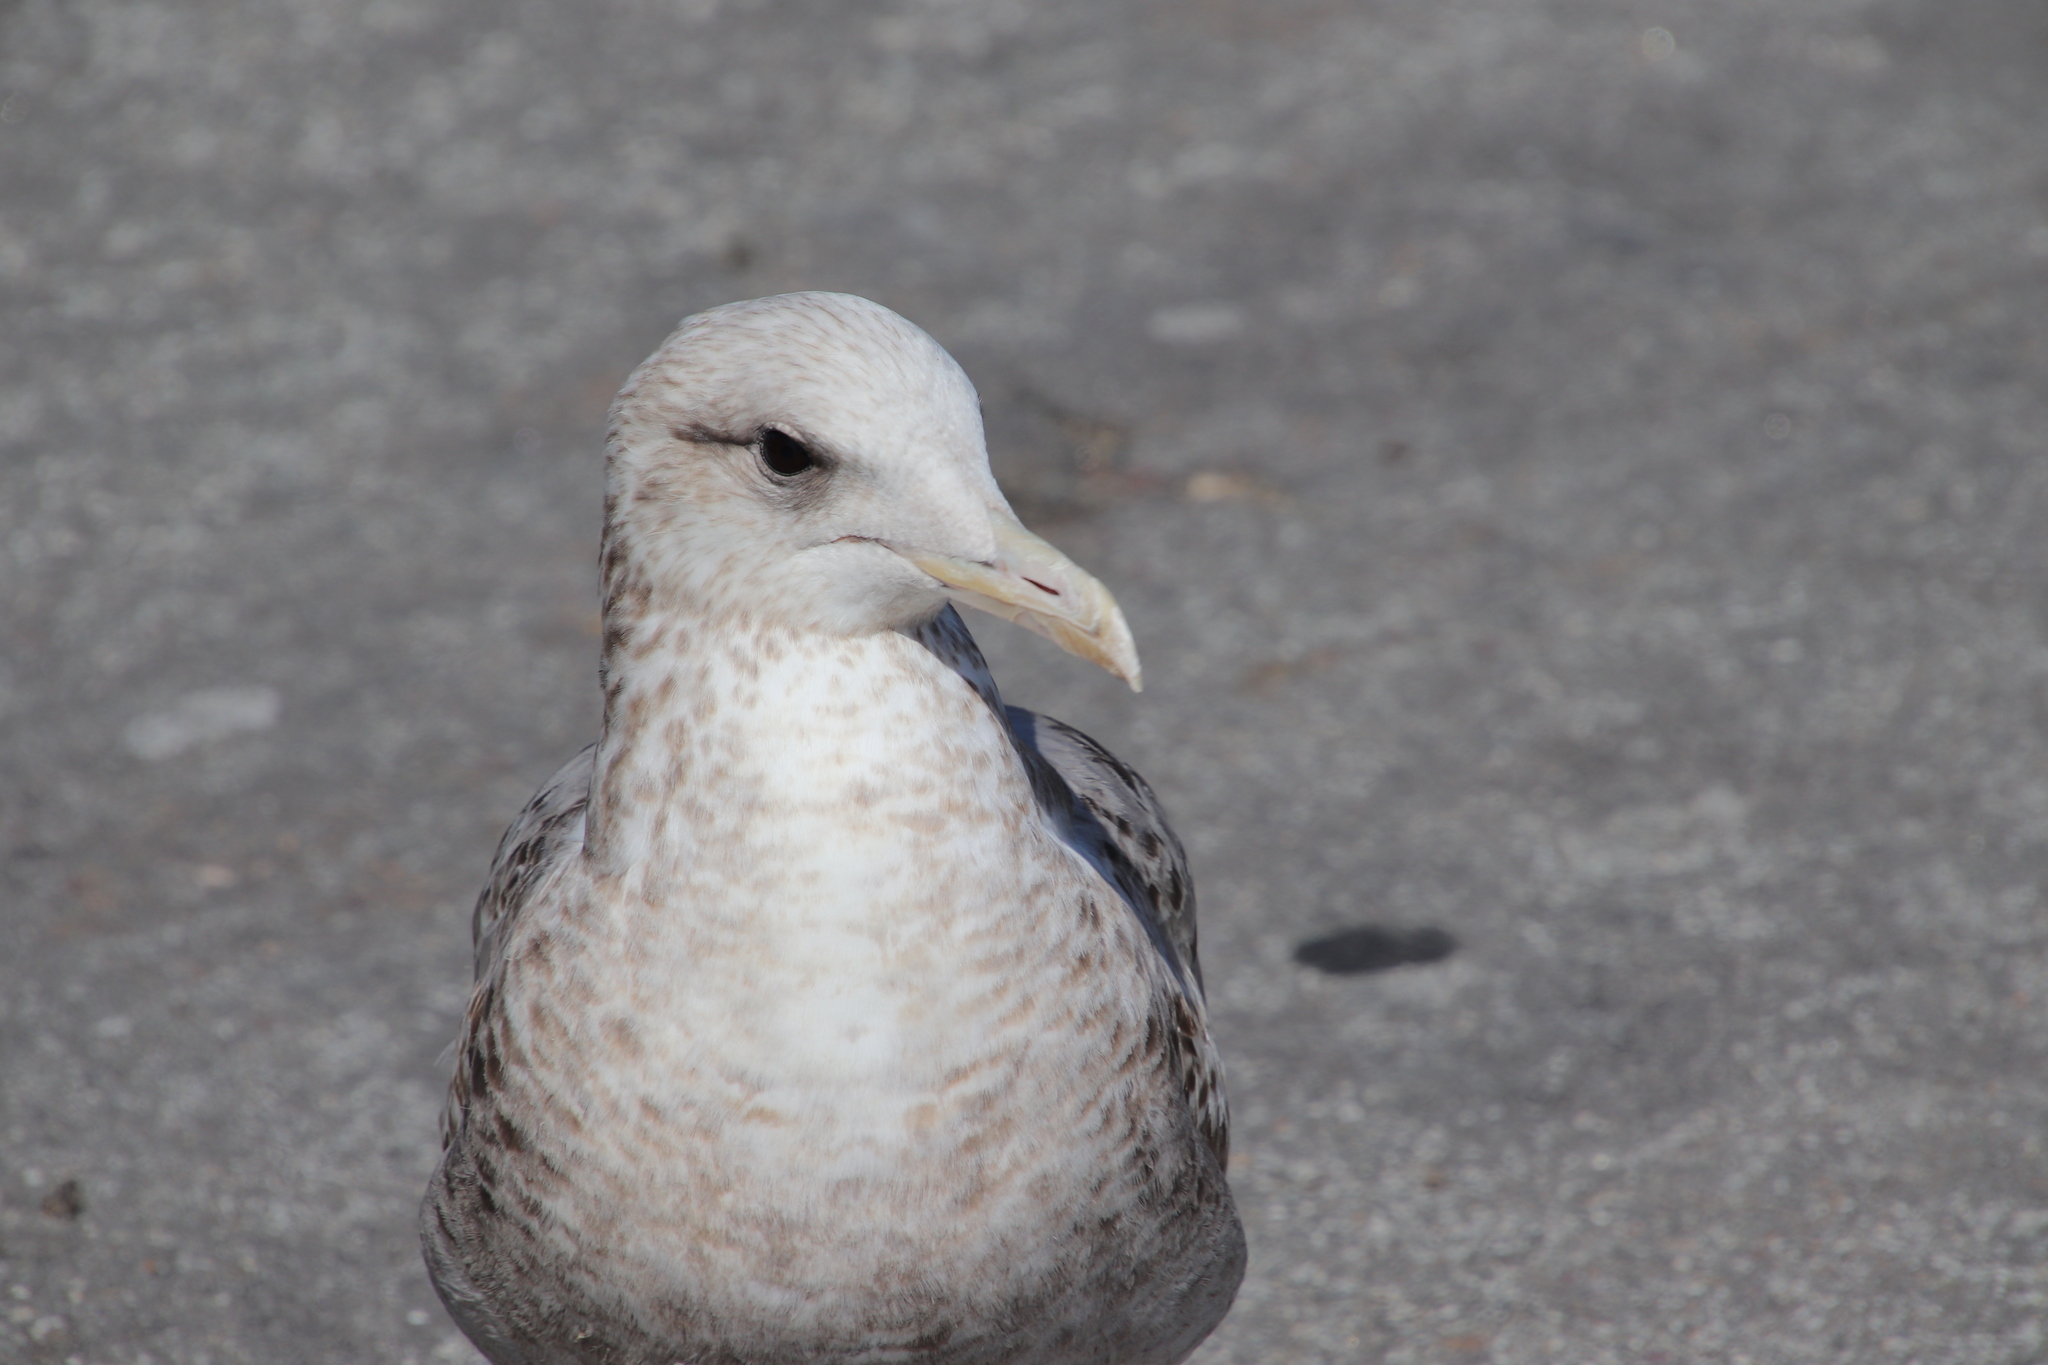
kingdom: Animalia
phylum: Chordata
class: Aves
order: Charadriiformes
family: Laridae
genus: Larus
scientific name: Larus californicus
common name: California gull
